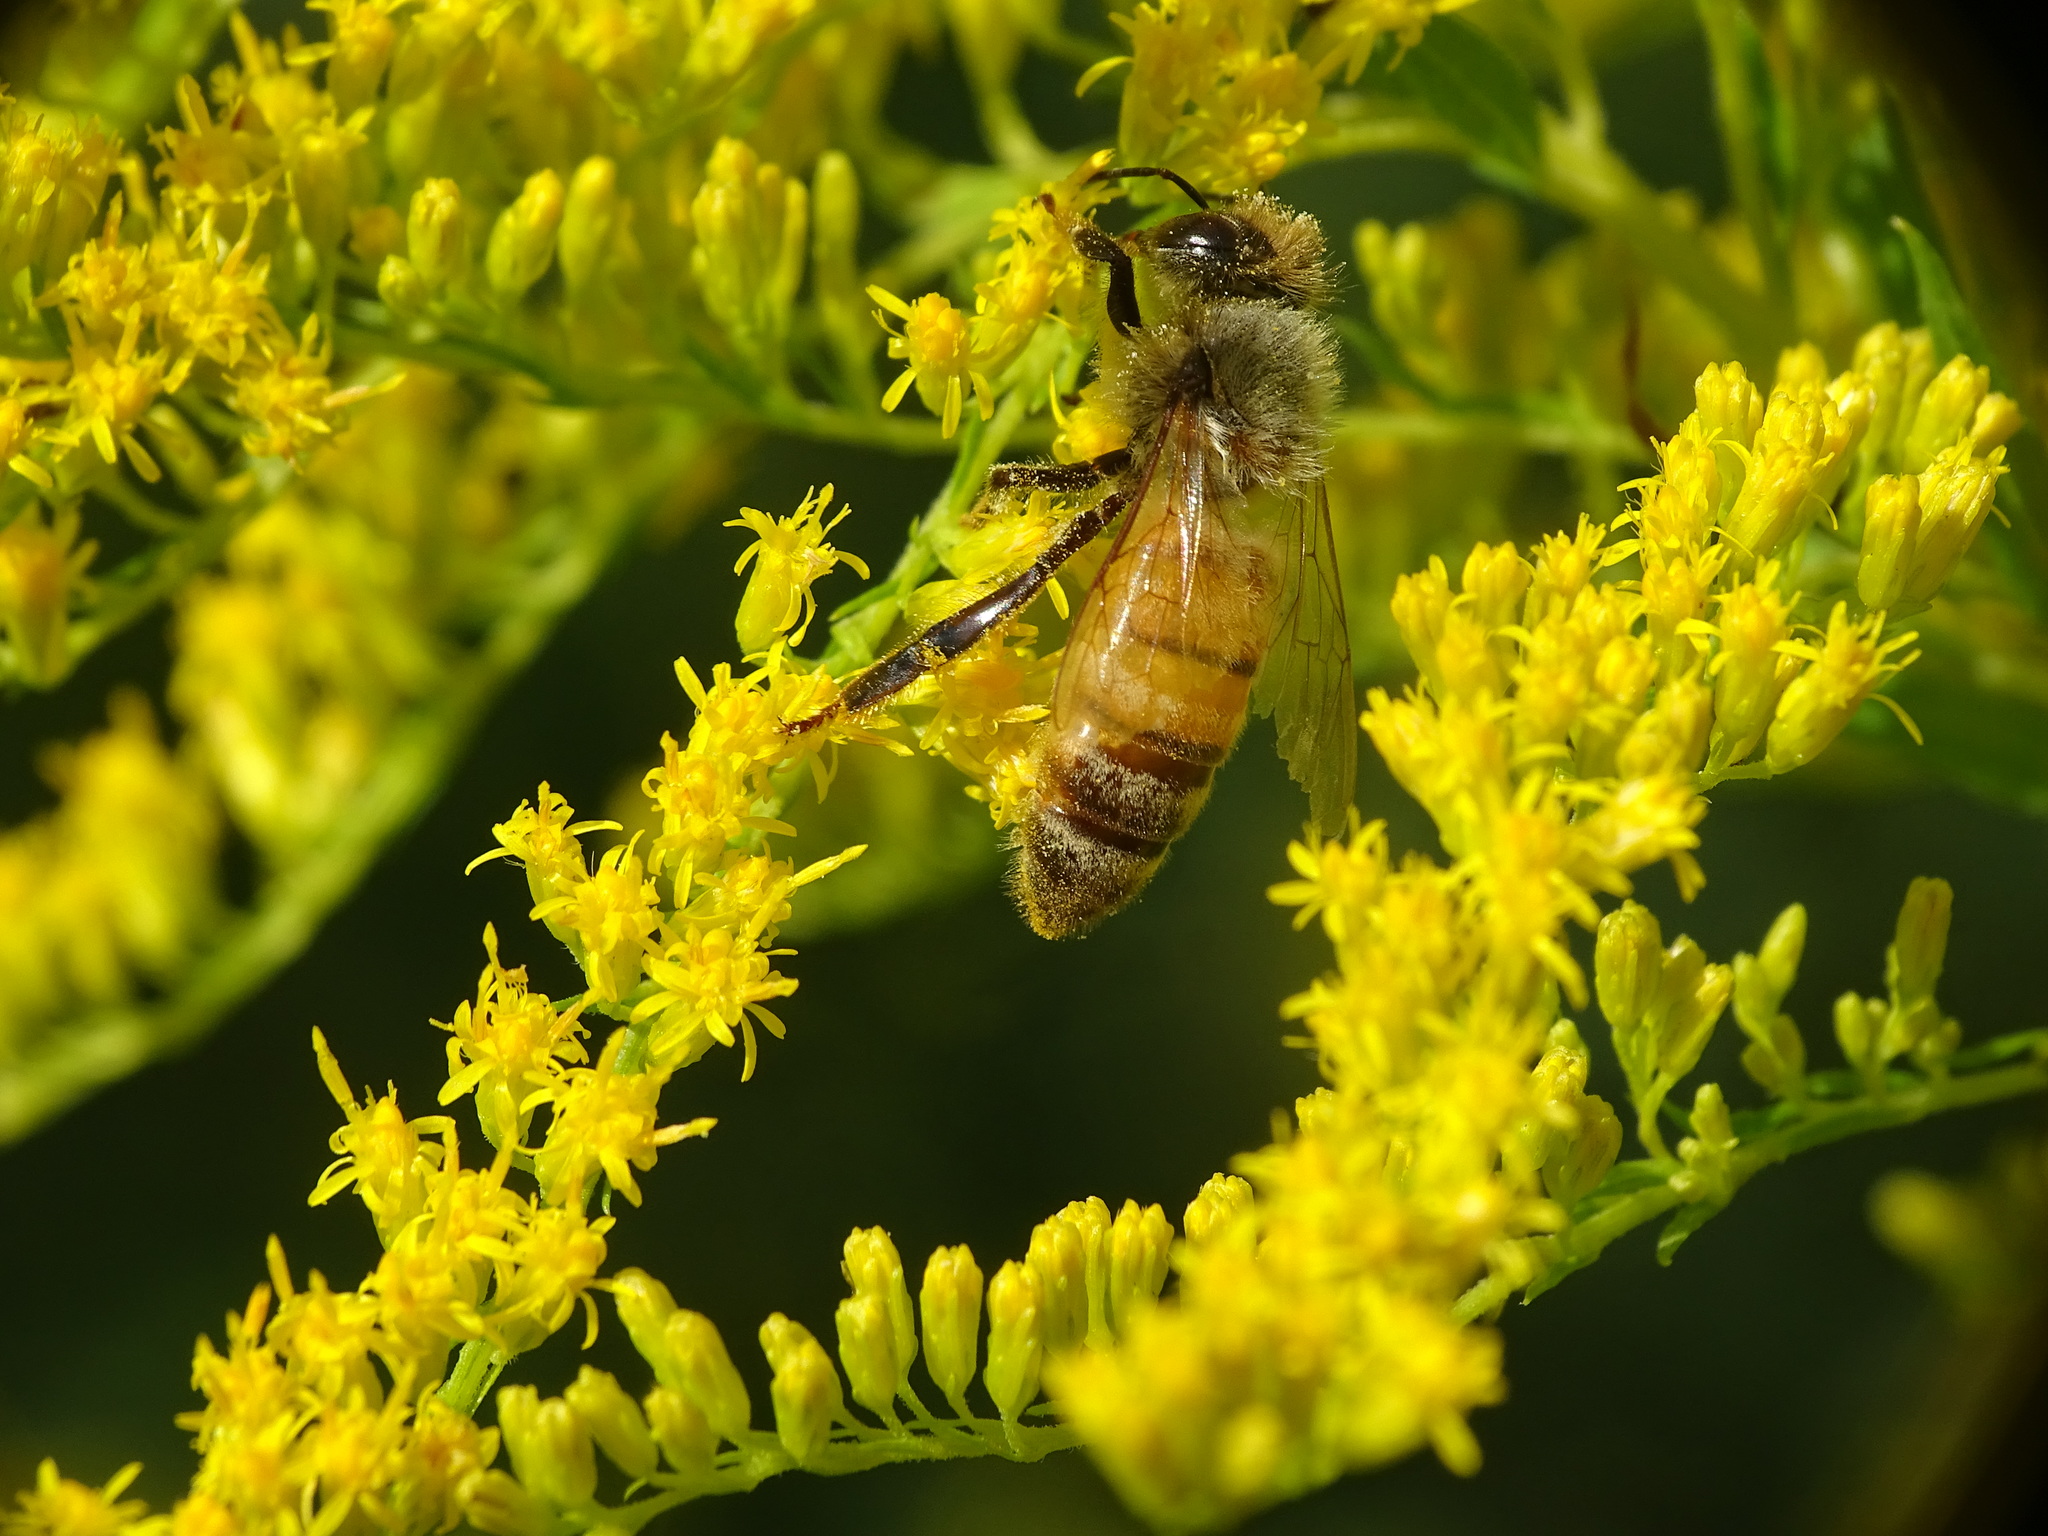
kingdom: Animalia
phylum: Arthropoda
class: Insecta
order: Hymenoptera
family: Apidae
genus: Apis
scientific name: Apis mellifera
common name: Honey bee
